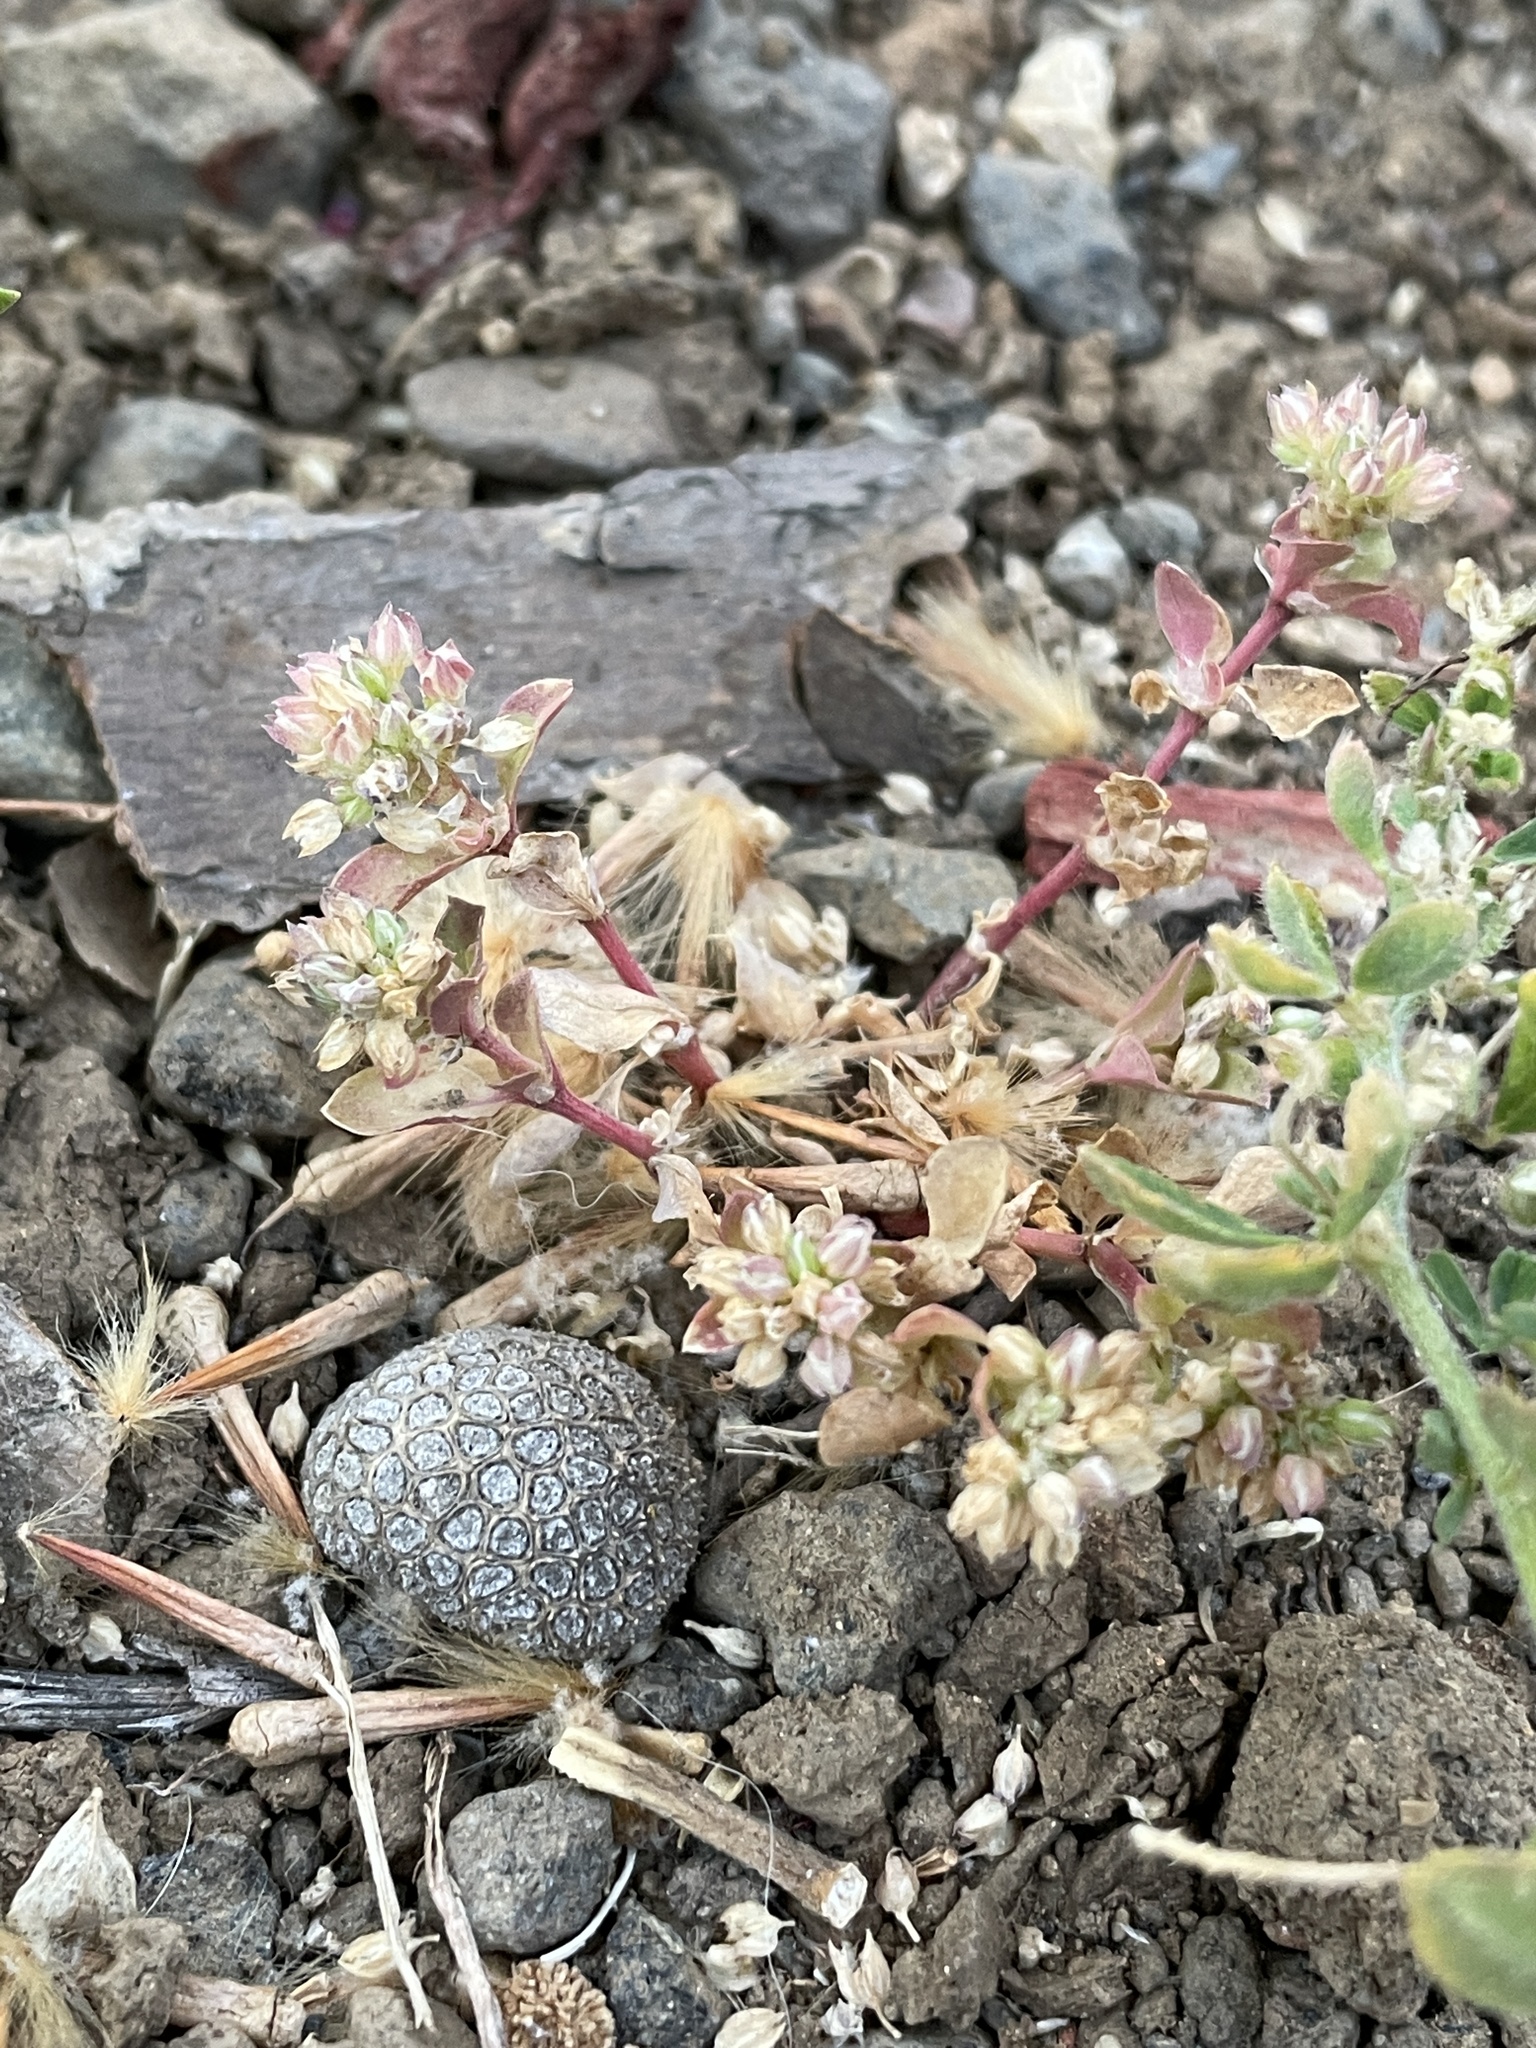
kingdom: Plantae
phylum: Tracheophyta
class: Magnoliopsida
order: Caryophyllales
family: Caryophyllaceae
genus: Polycarpon
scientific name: Polycarpon tetraphyllum
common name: Four-leaved all-seed
